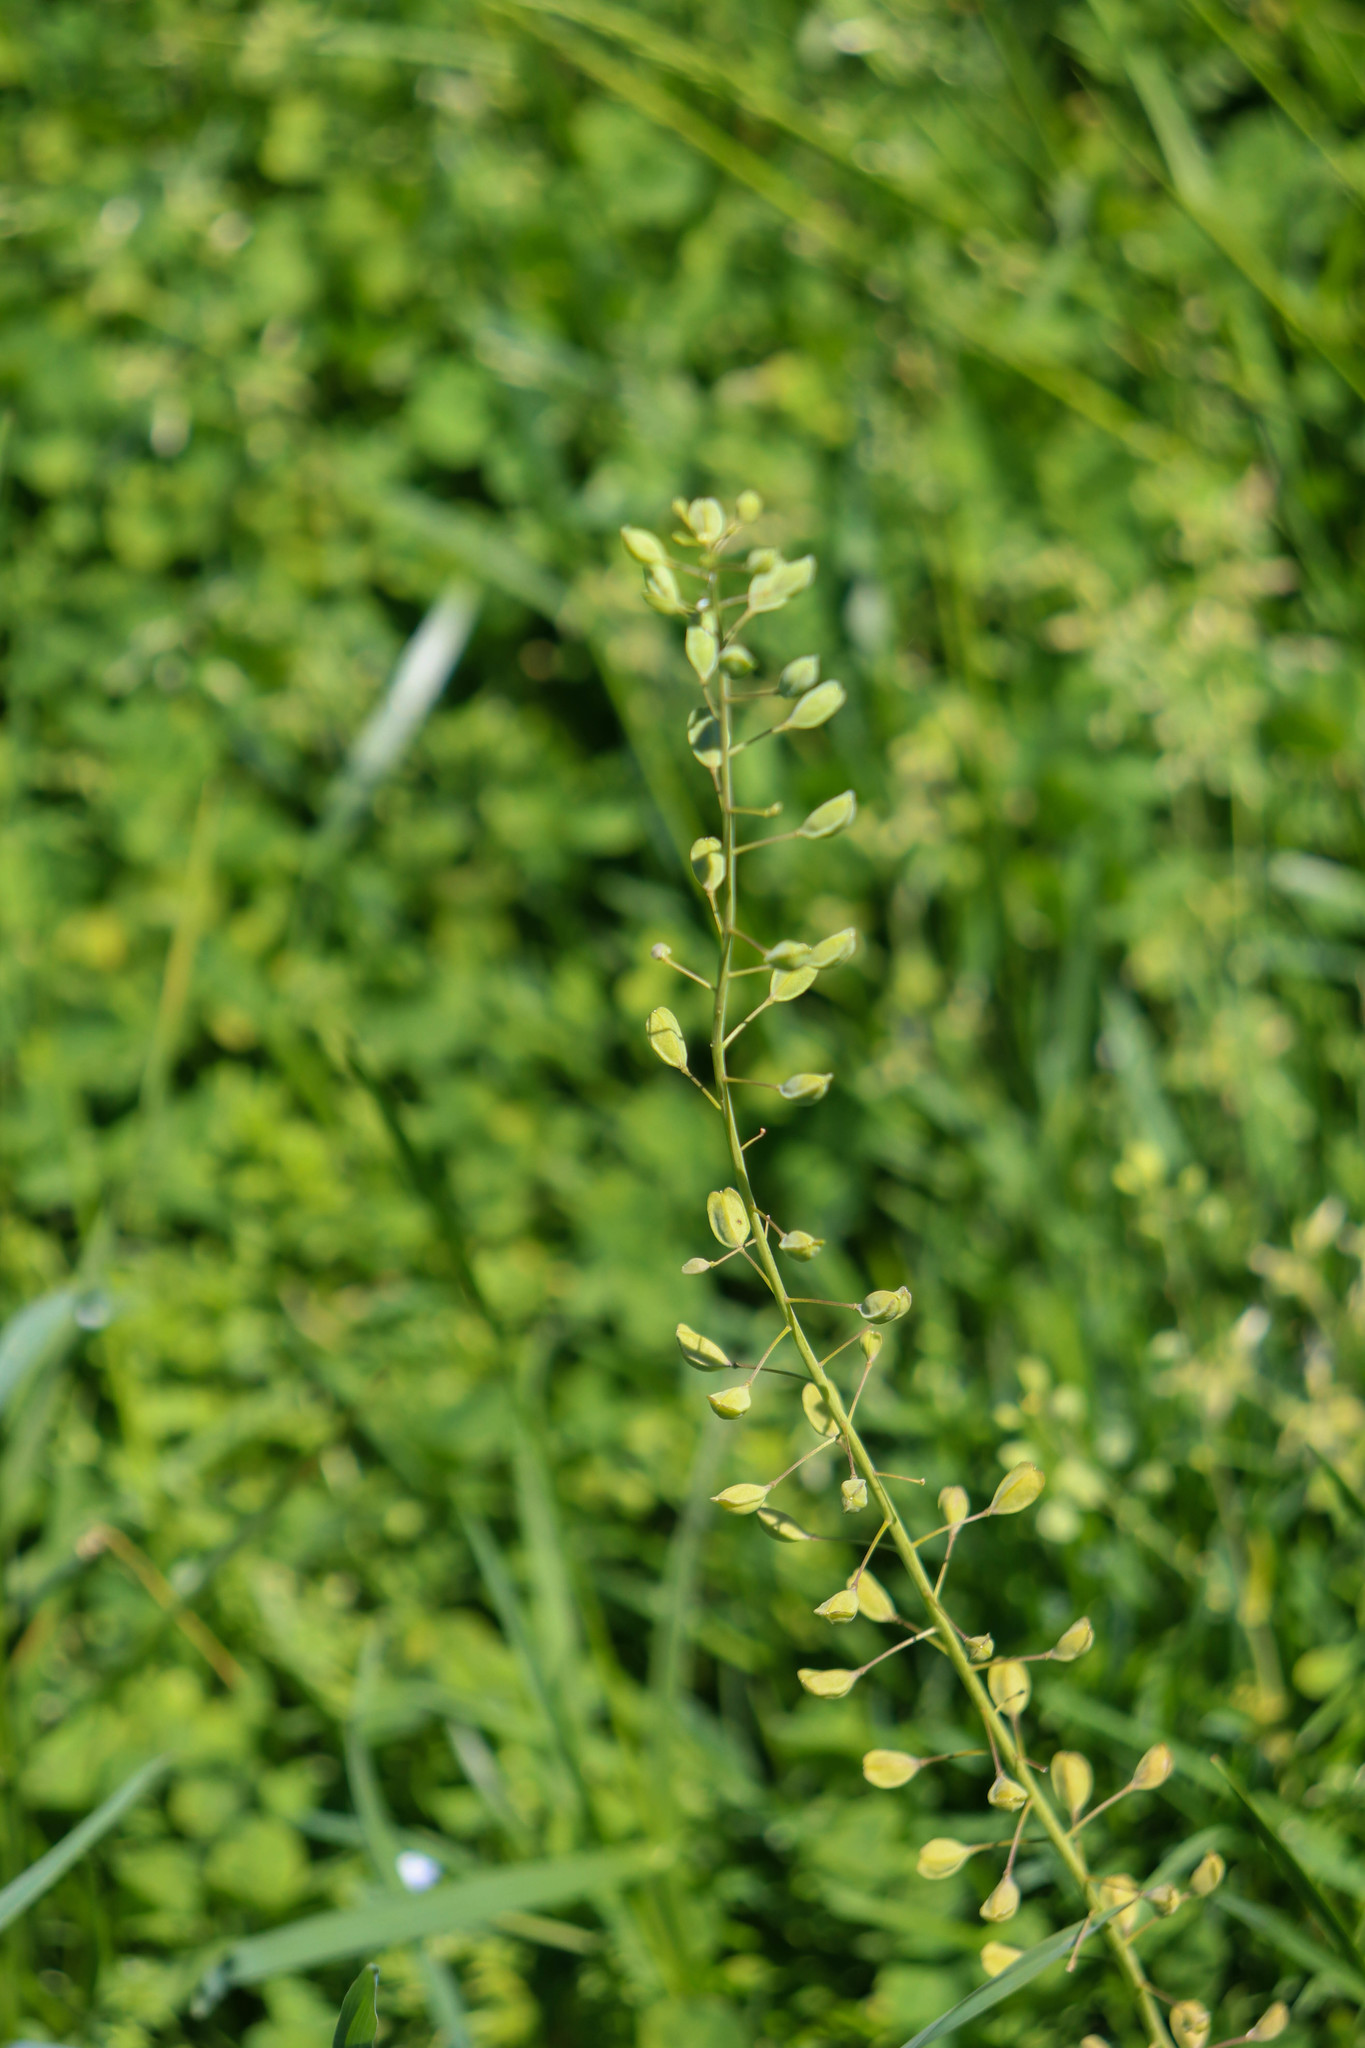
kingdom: Plantae
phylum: Tracheophyta
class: Magnoliopsida
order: Brassicales
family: Brassicaceae
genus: Mummenhoffia
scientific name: Mummenhoffia alliacea
